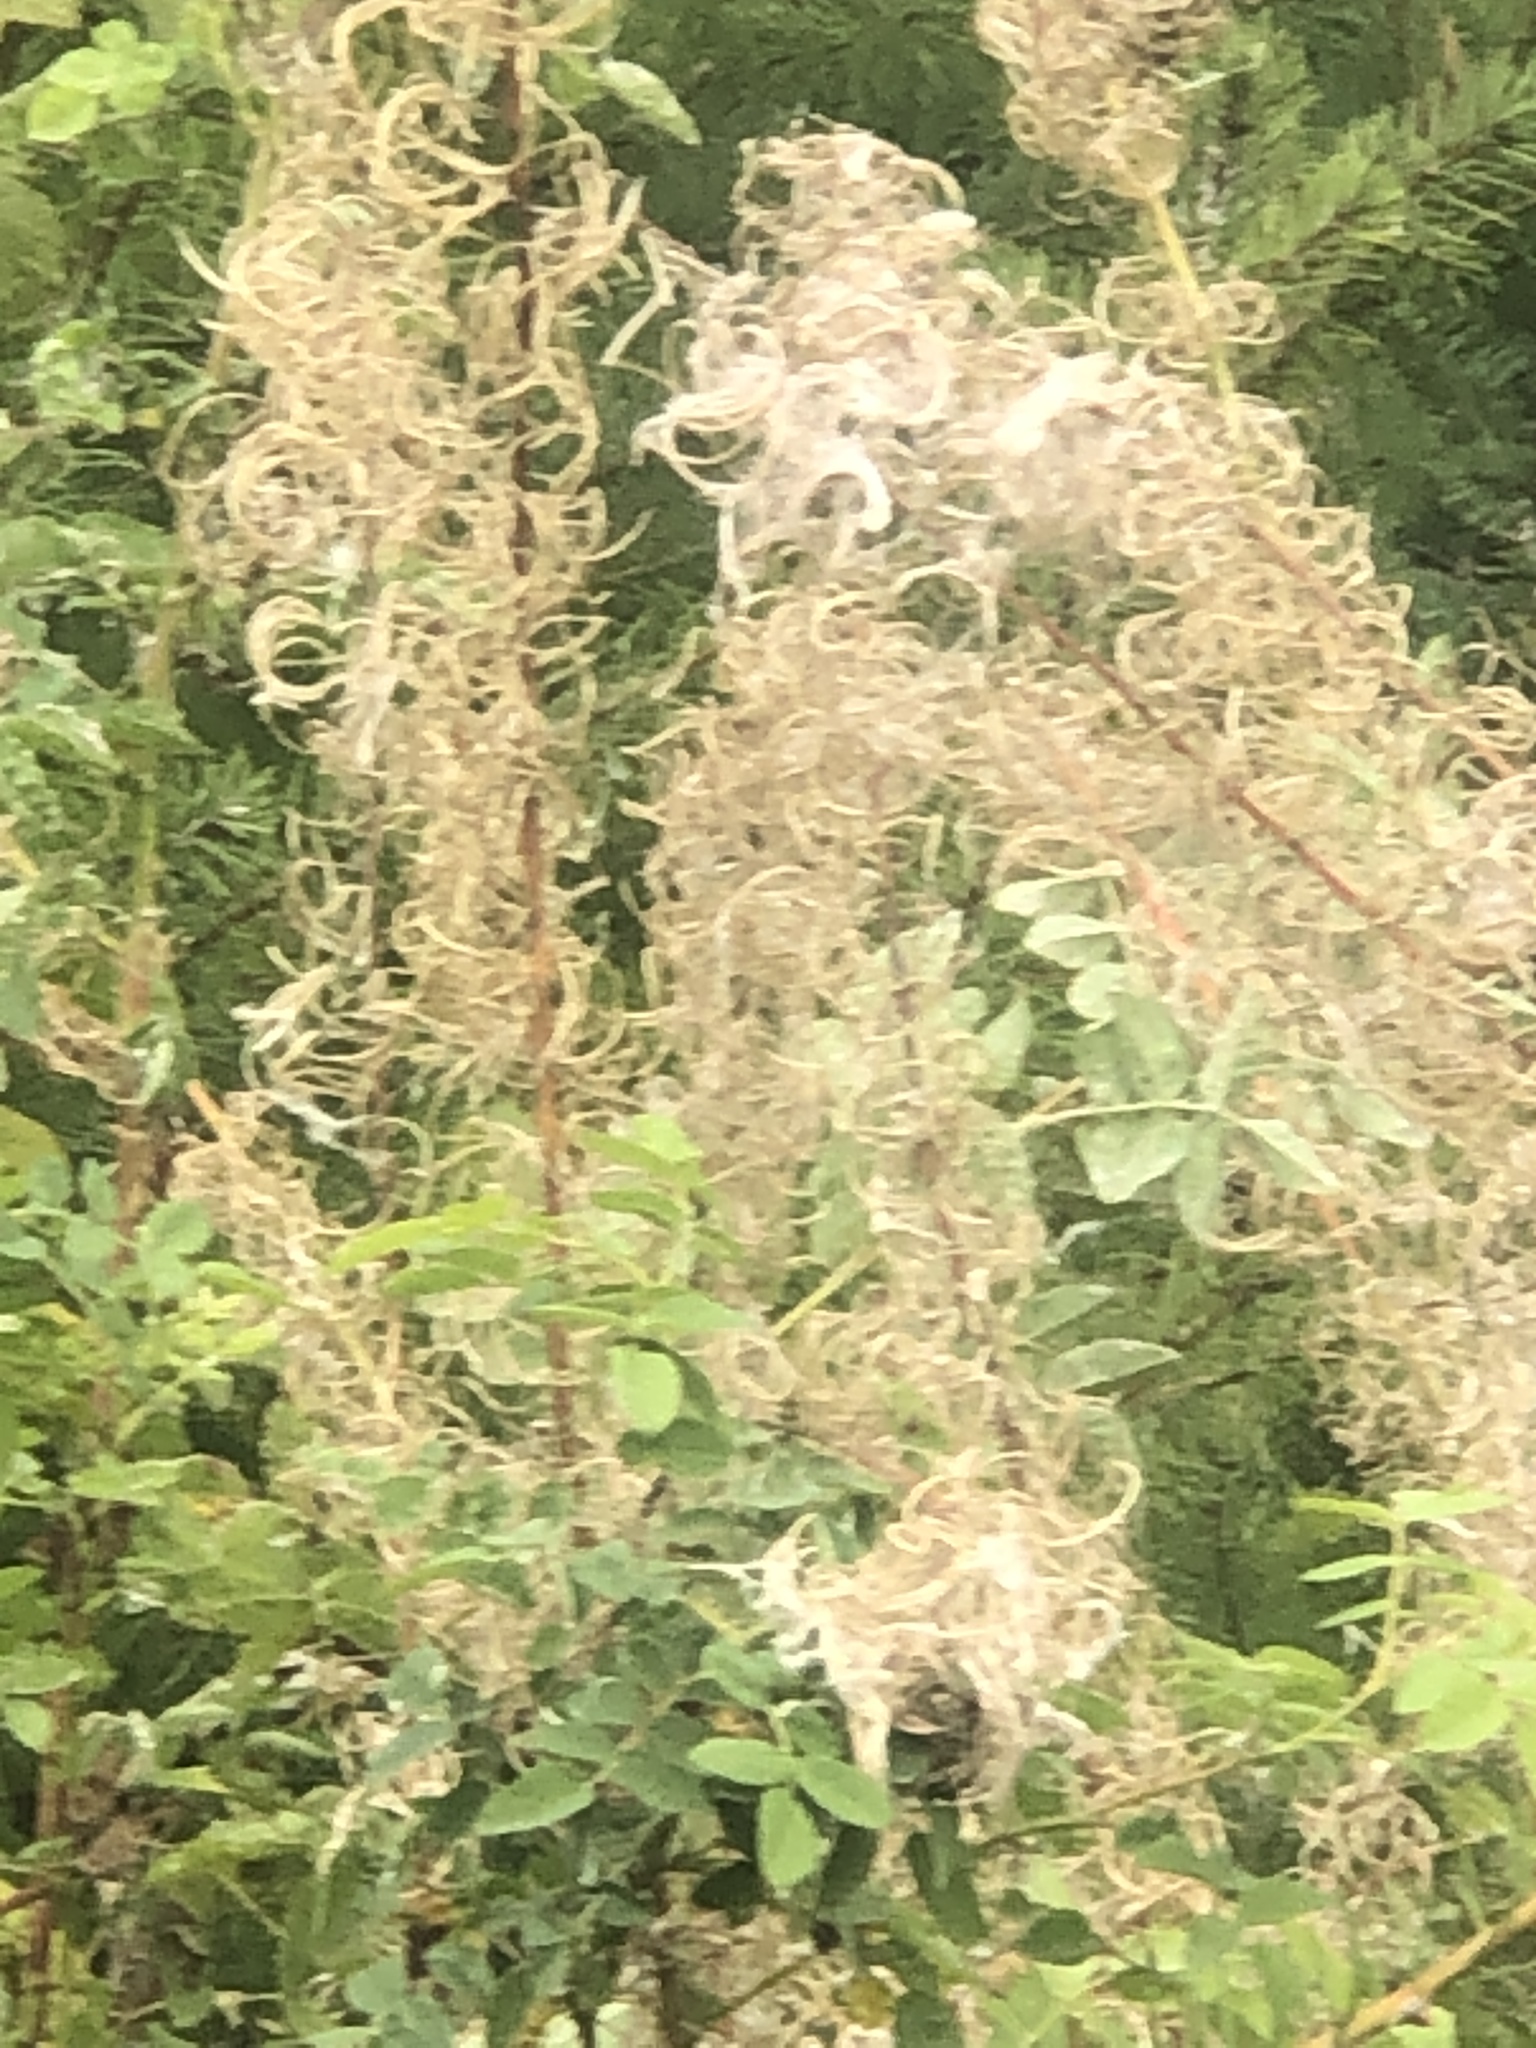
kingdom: Plantae
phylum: Tracheophyta
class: Magnoliopsida
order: Myrtales
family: Onagraceae
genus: Chamaenerion
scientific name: Chamaenerion angustifolium
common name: Fireweed
